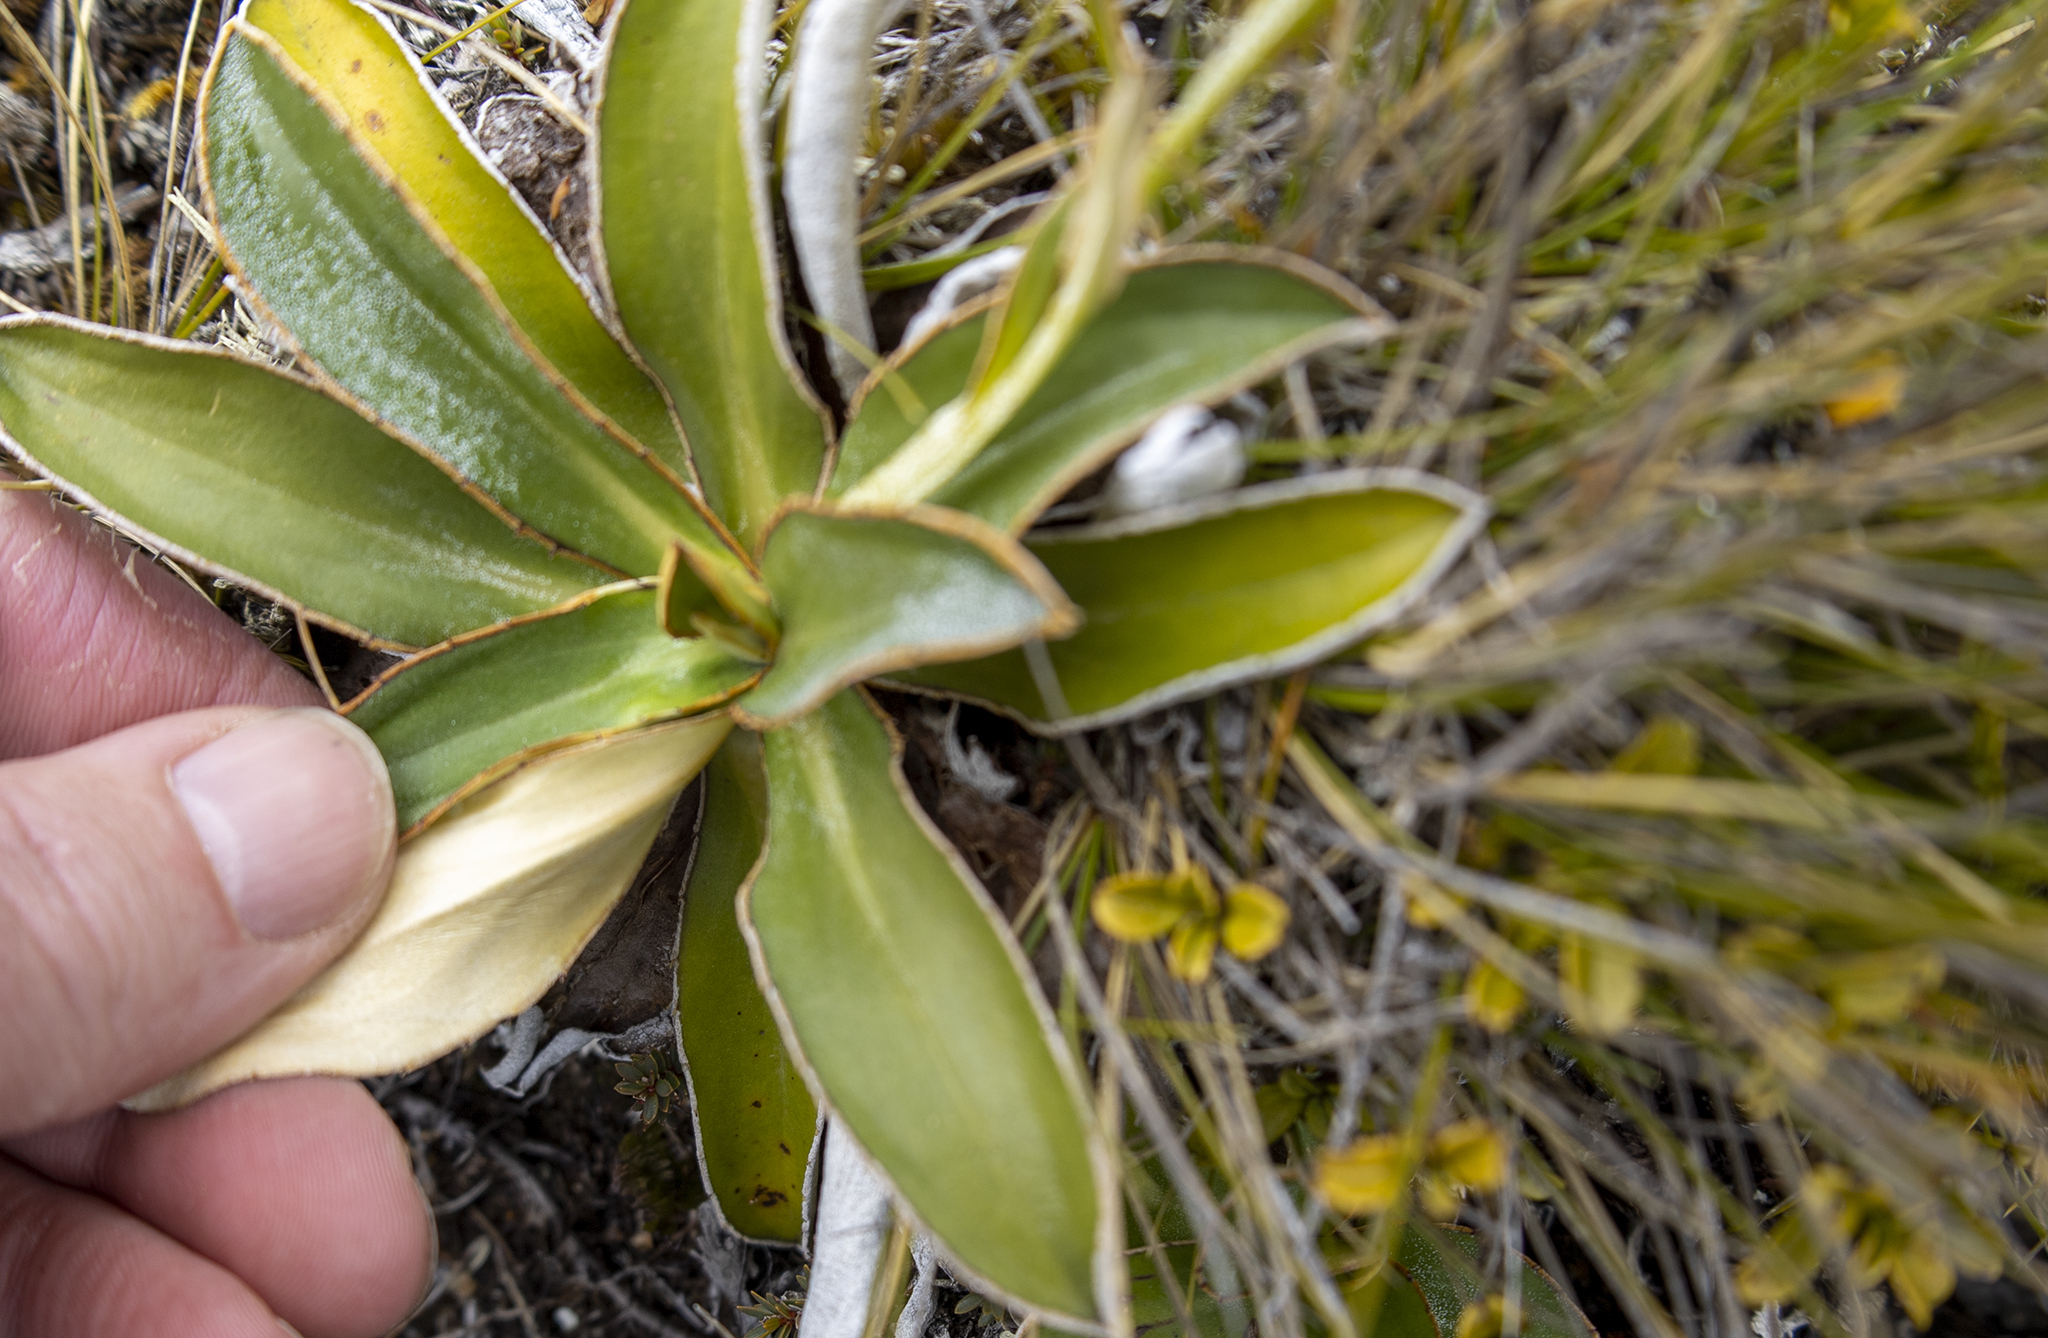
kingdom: Plantae
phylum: Tracheophyta
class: Magnoliopsida
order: Asterales
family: Asteraceae
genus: Celmisia
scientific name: Celmisia dallii
